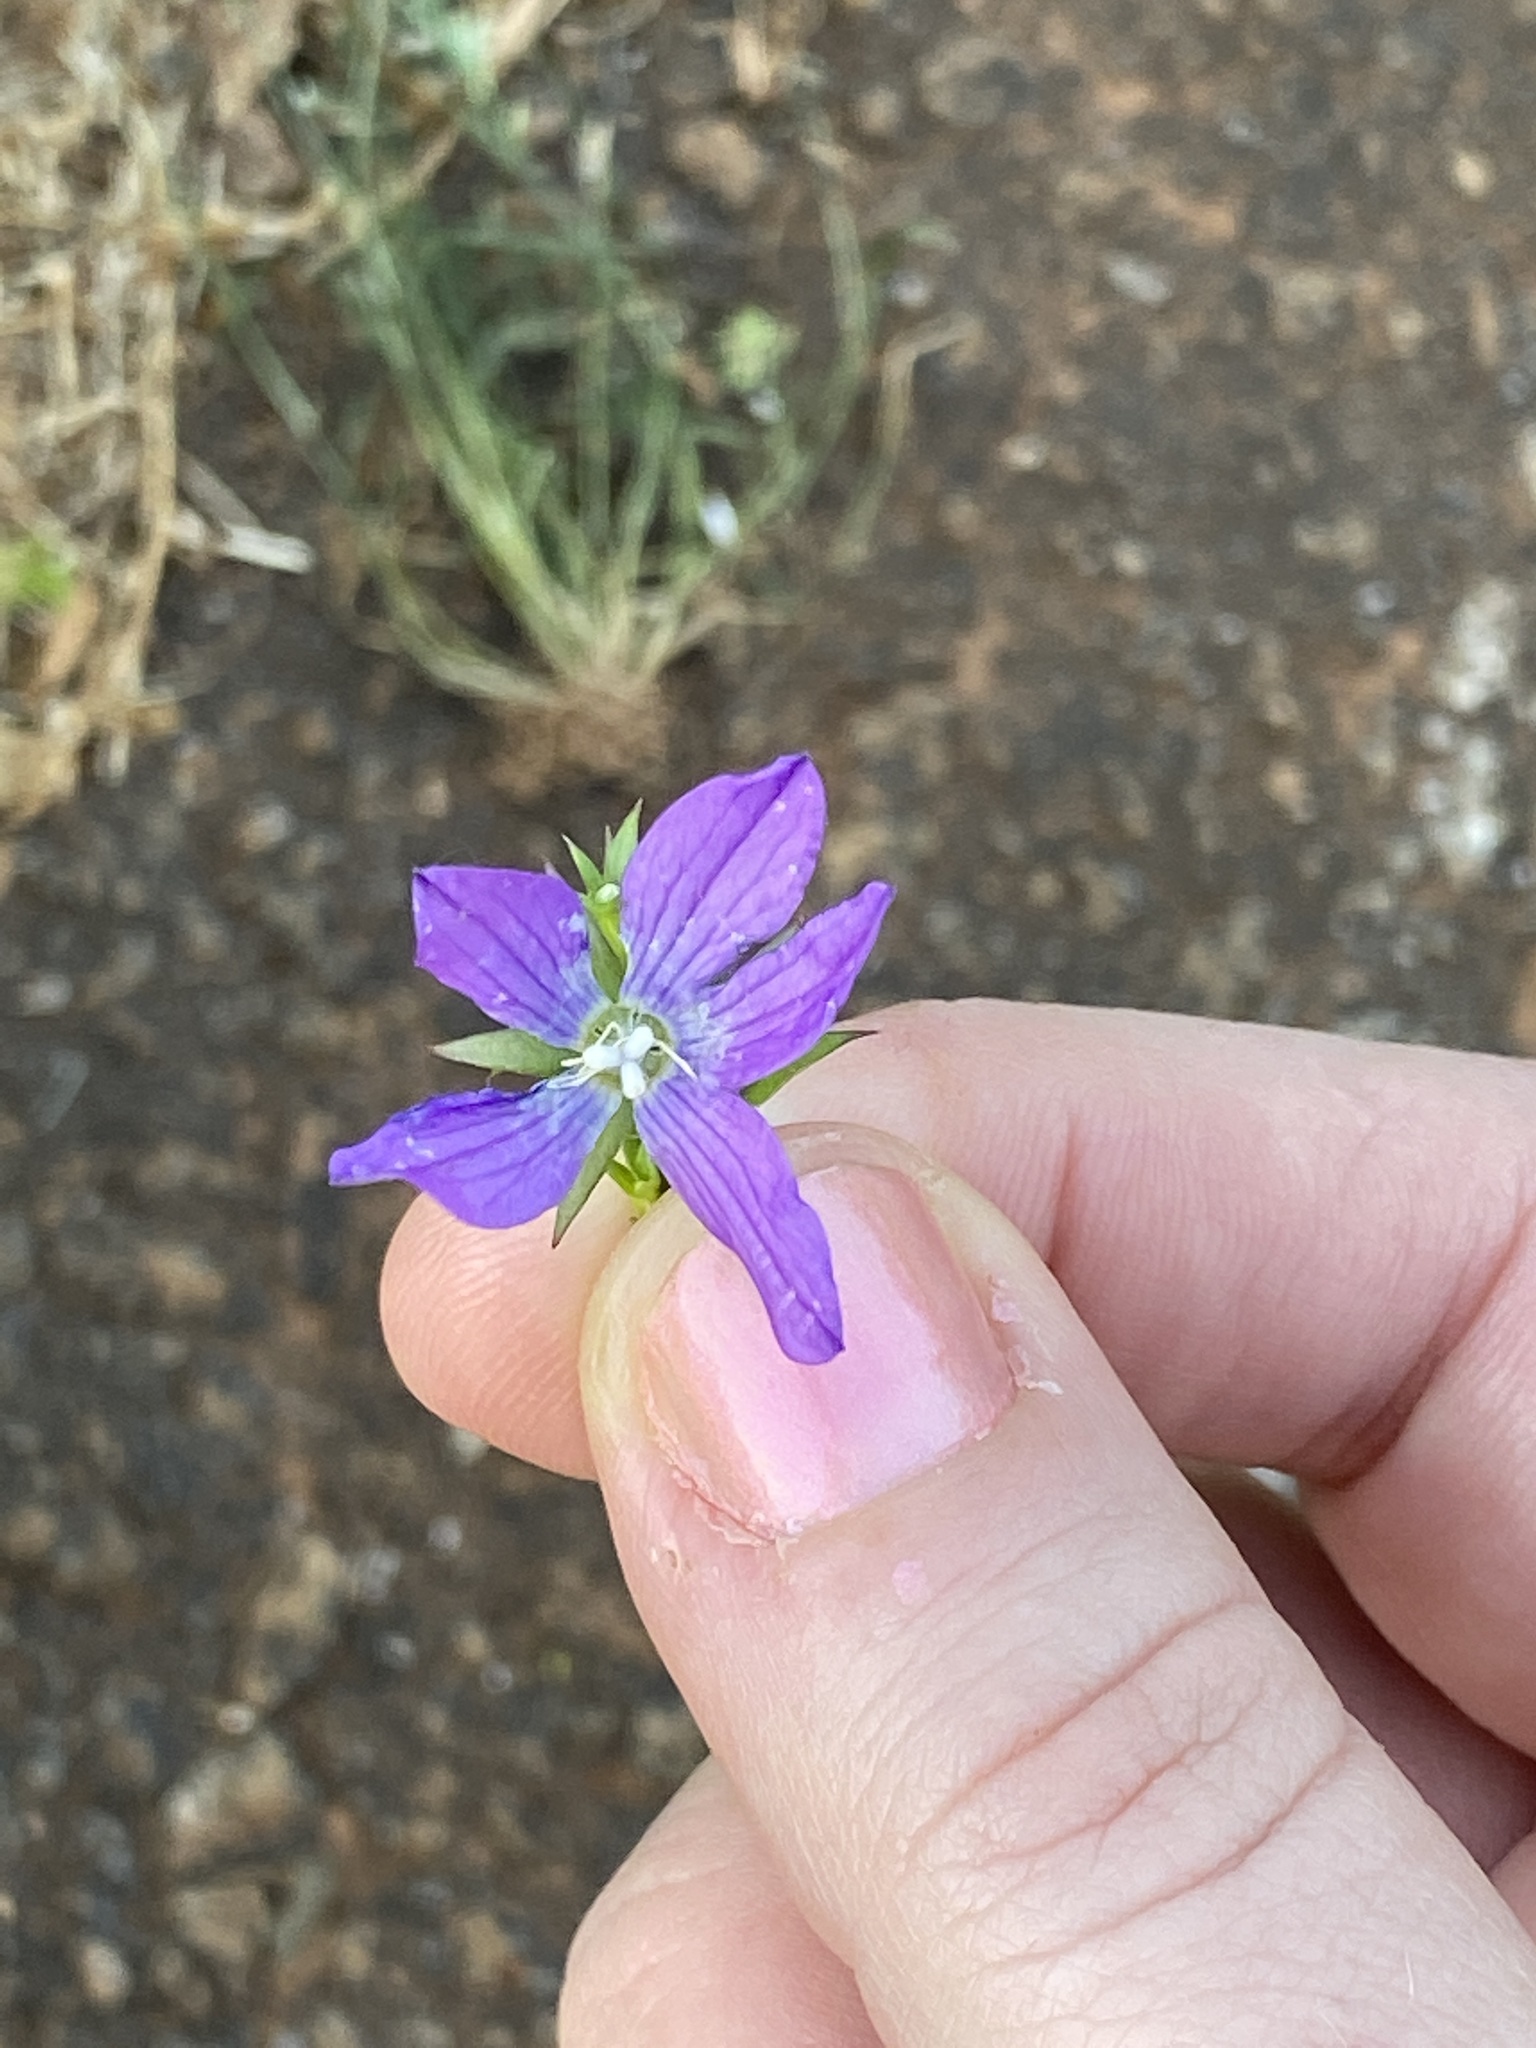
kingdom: Plantae
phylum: Tracheophyta
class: Magnoliopsida
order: Asterales
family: Campanulaceae
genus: Triodanis
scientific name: Triodanis biflora
